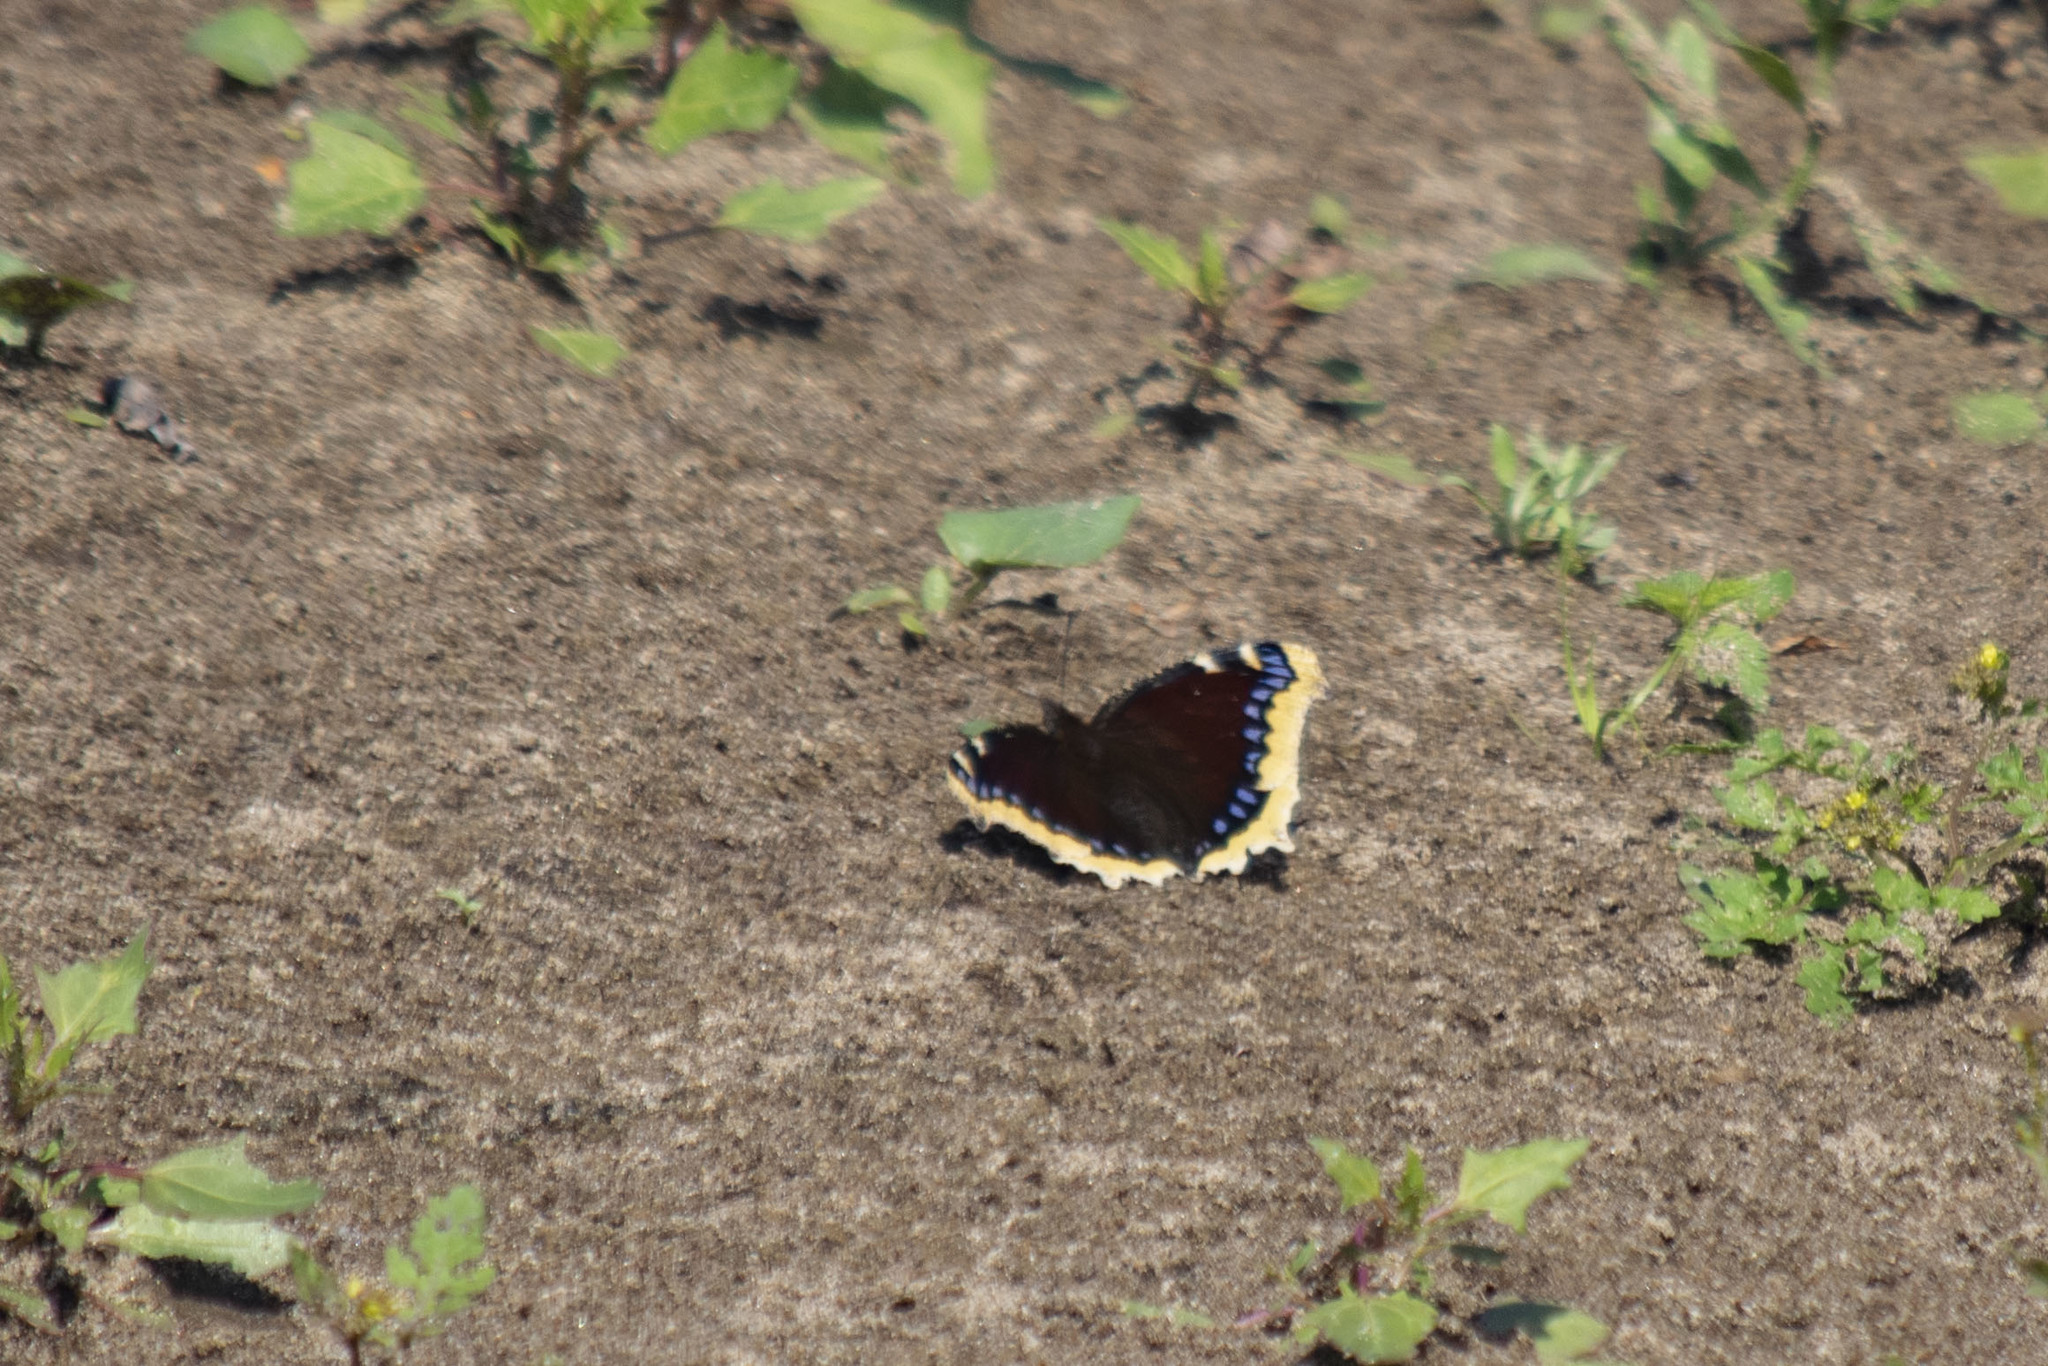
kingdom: Animalia
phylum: Arthropoda
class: Insecta
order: Lepidoptera
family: Nymphalidae
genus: Nymphalis
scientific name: Nymphalis antiopa
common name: Camberwell beauty
